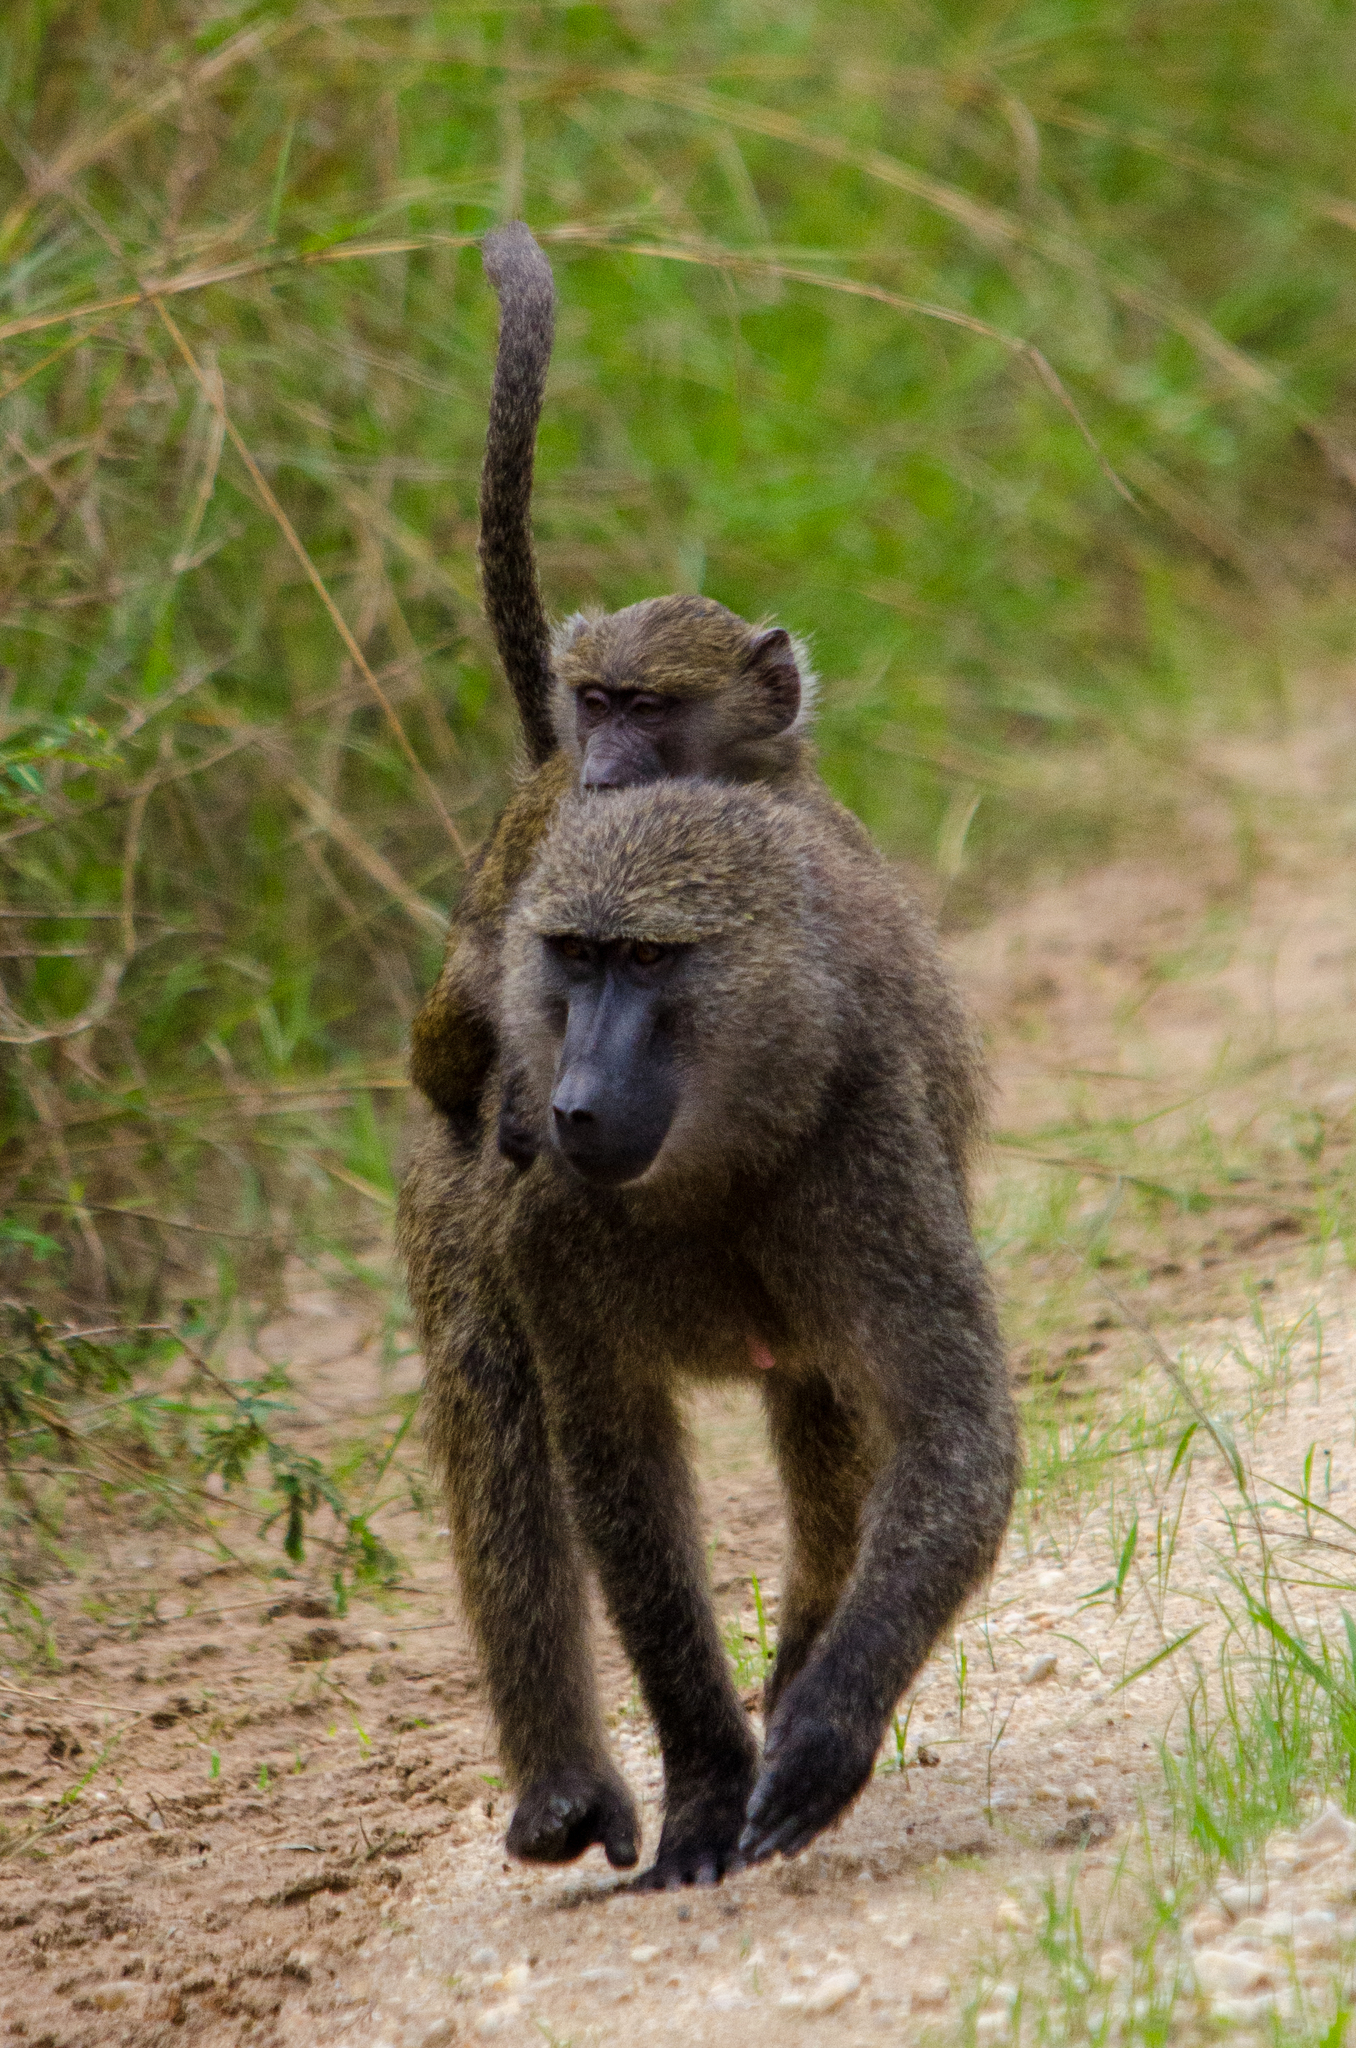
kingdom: Animalia
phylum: Chordata
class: Mammalia
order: Primates
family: Cercopithecidae
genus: Papio
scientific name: Papio anubis
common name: Olive baboon
